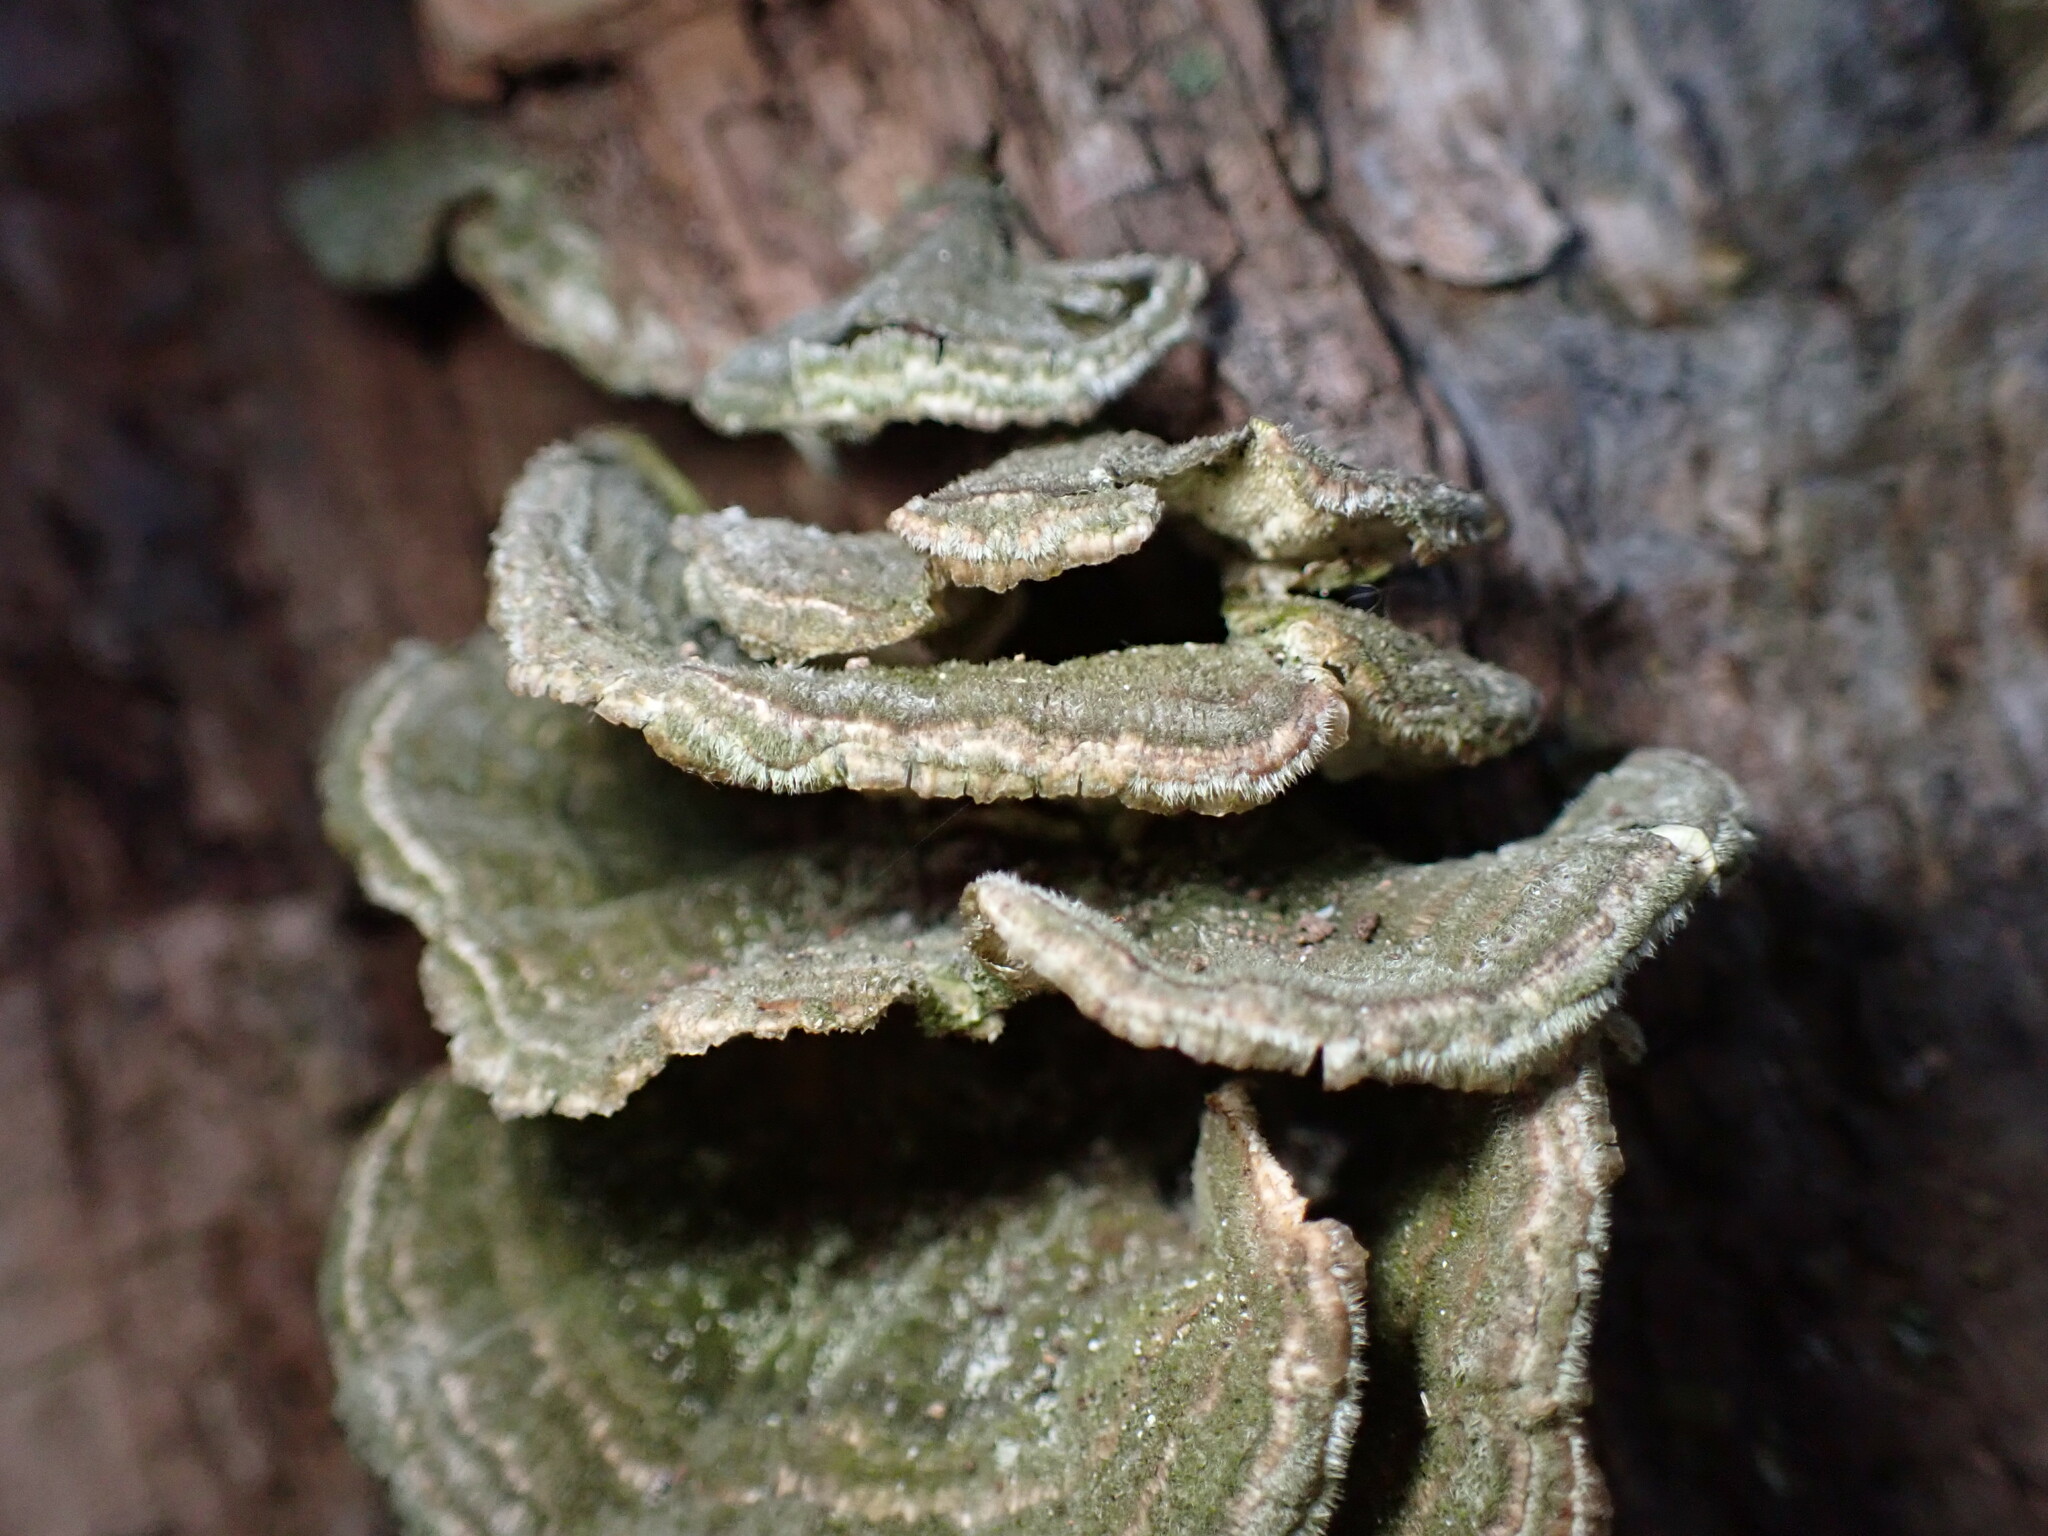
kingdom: Fungi
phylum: Basidiomycota
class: Agaricomycetes
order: Polyporales
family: Polyporaceae
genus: Trametes
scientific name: Trametes versicolor
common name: Turkeytail
